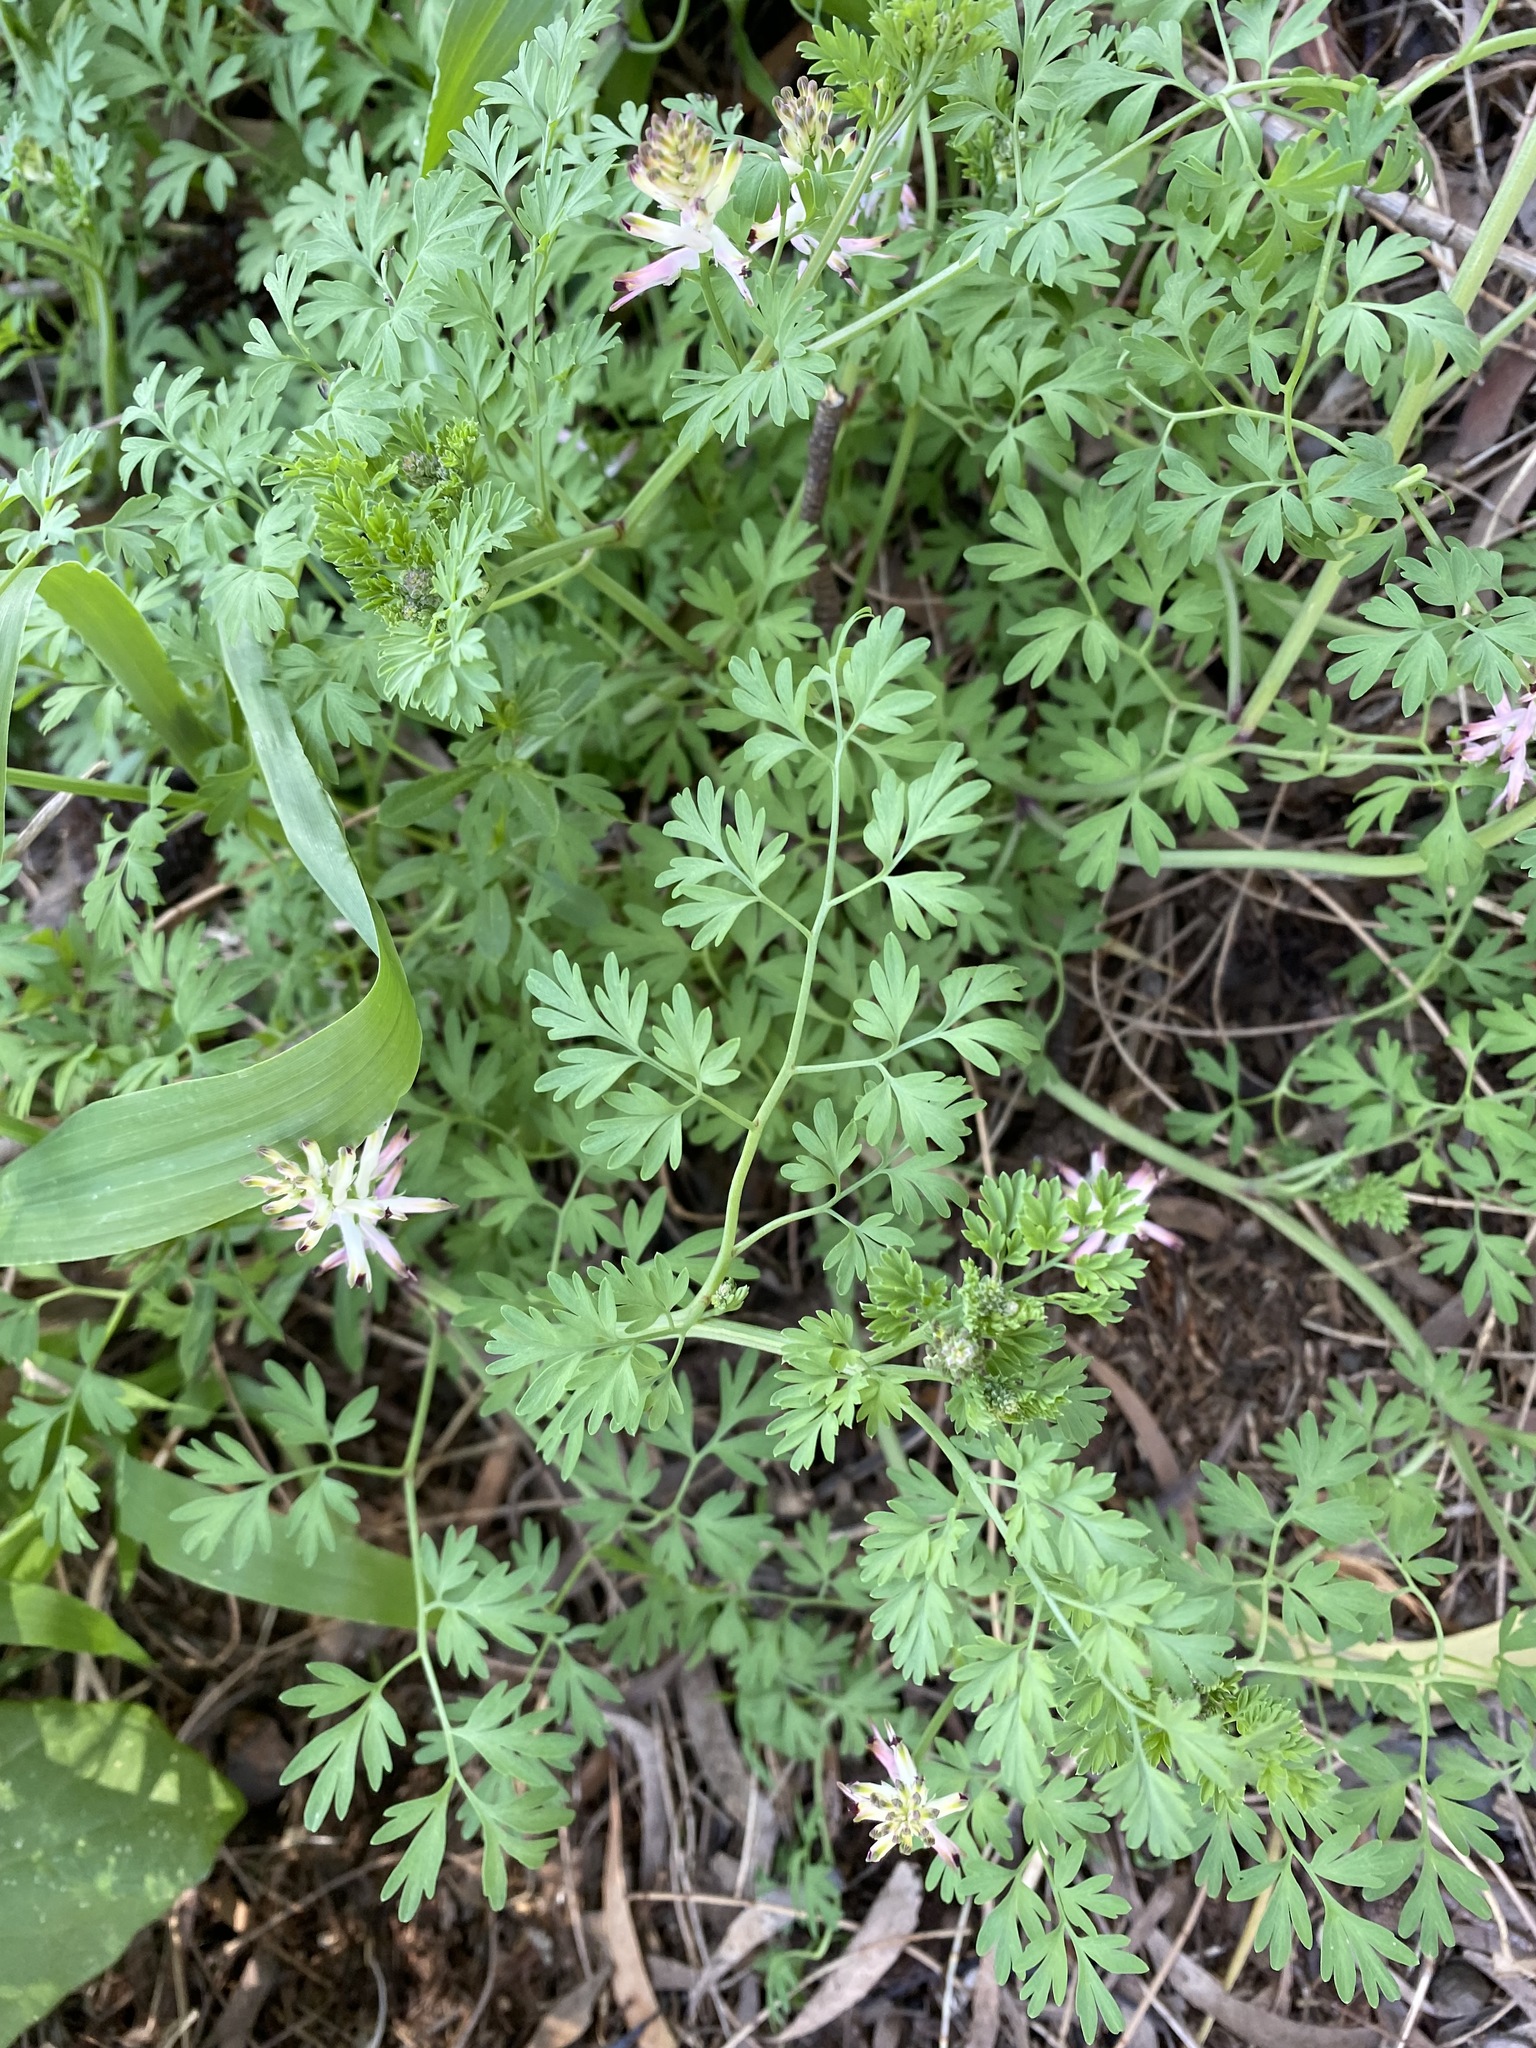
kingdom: Plantae
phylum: Tracheophyta
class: Magnoliopsida
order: Ranunculales
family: Papaveraceae
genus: Fumaria
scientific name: Fumaria capreolata
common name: White ramping-fumitory
